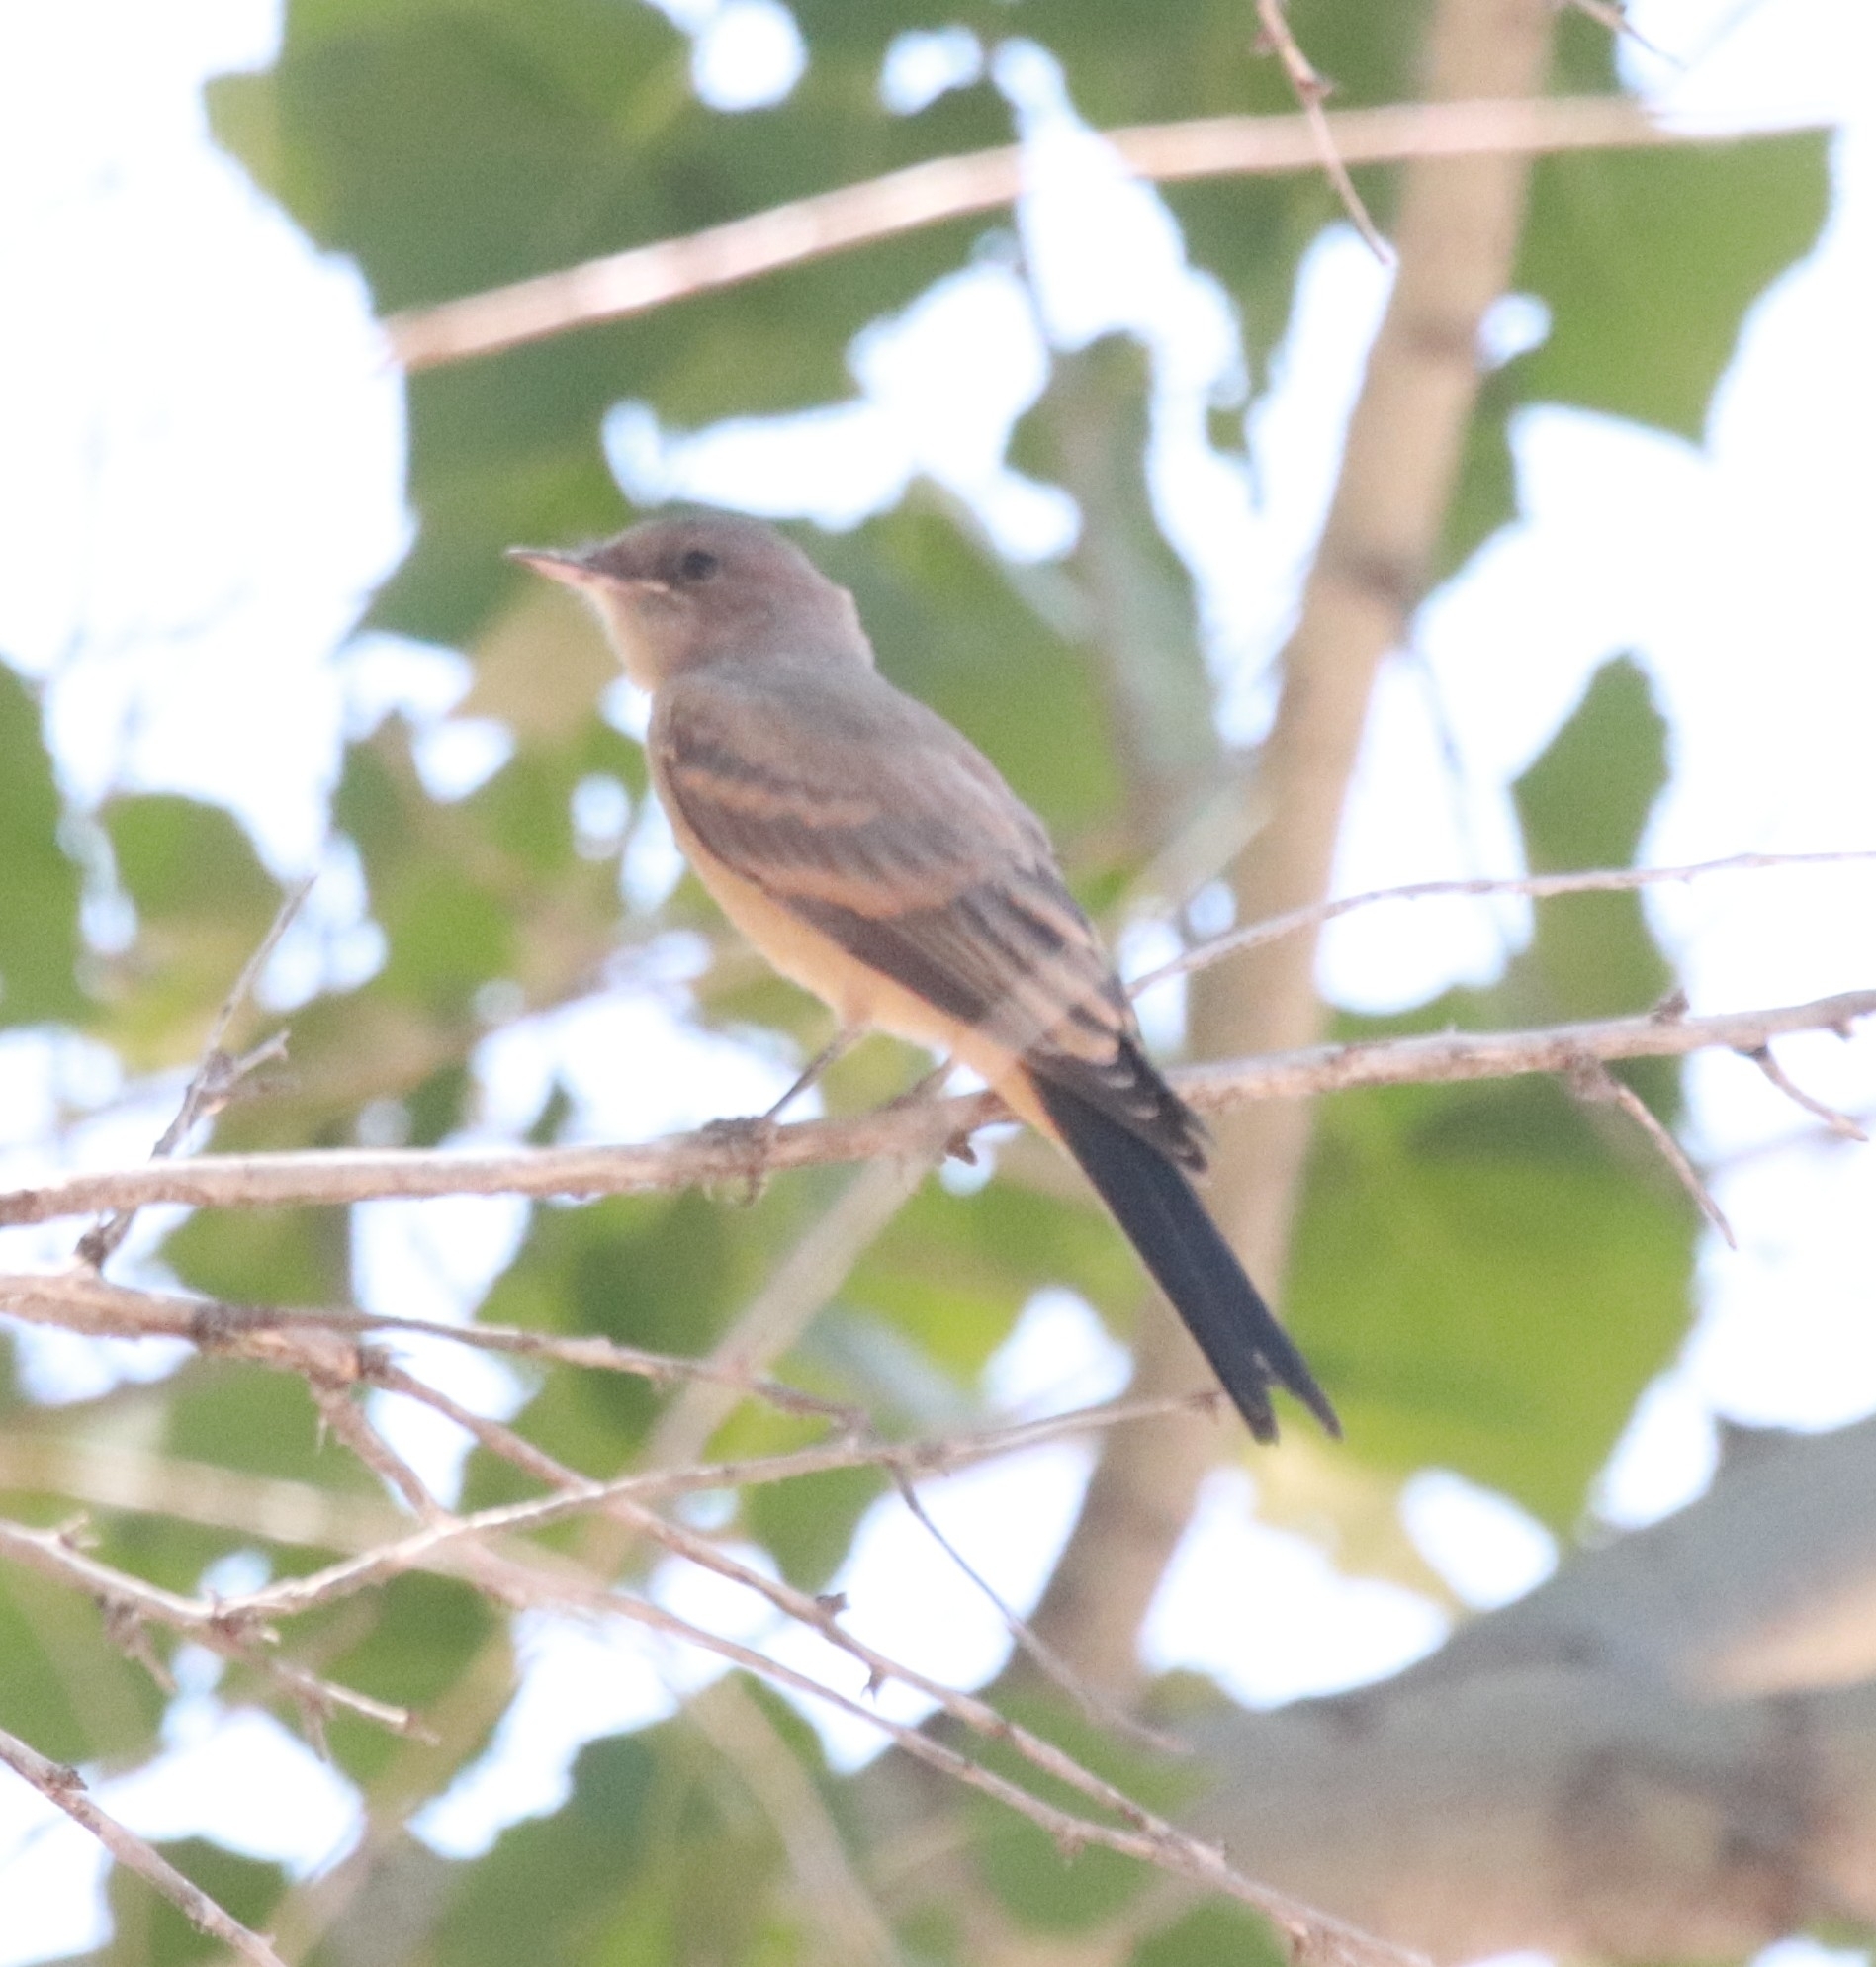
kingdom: Animalia
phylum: Chordata
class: Aves
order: Passeriformes
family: Tyrannidae
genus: Sayornis
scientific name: Sayornis saya
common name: Say's phoebe
